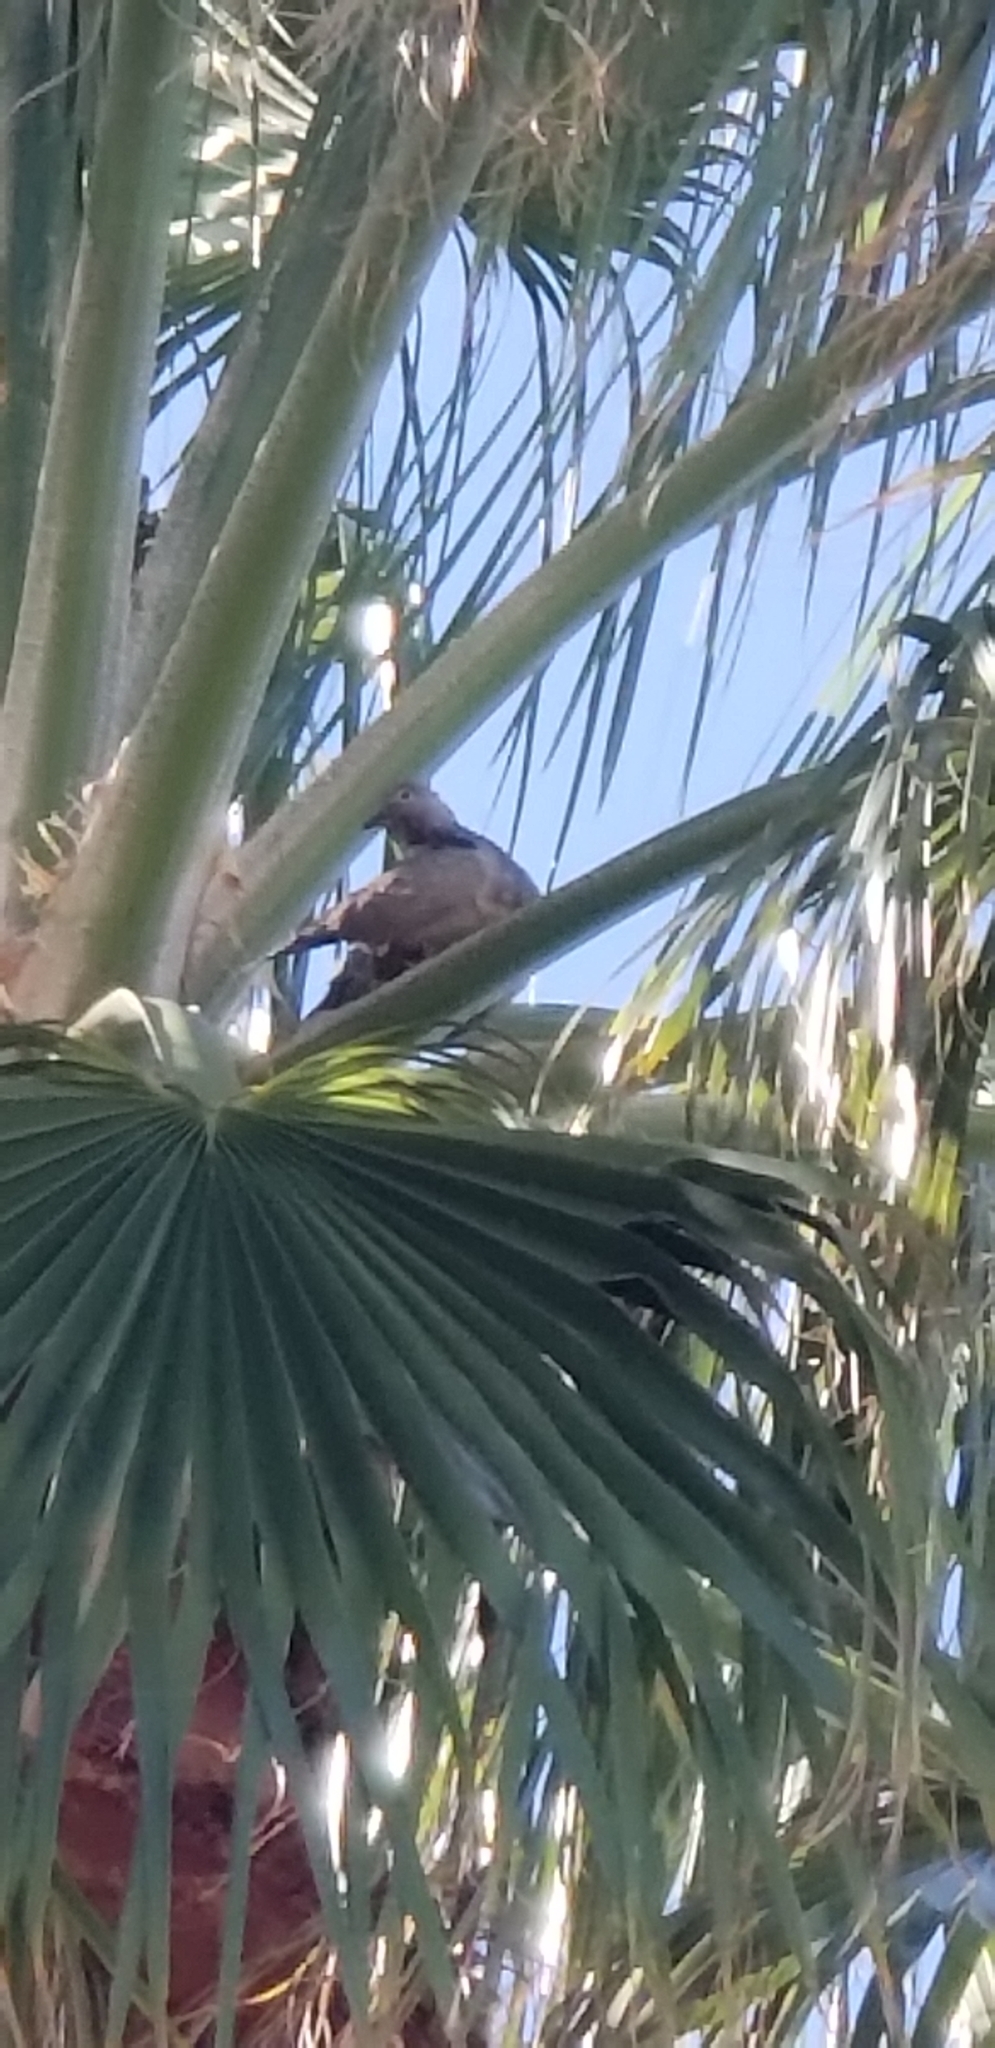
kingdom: Animalia
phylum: Chordata
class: Aves
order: Columbiformes
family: Columbidae
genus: Streptopelia
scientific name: Streptopelia decaocto
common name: Eurasian collared dove
